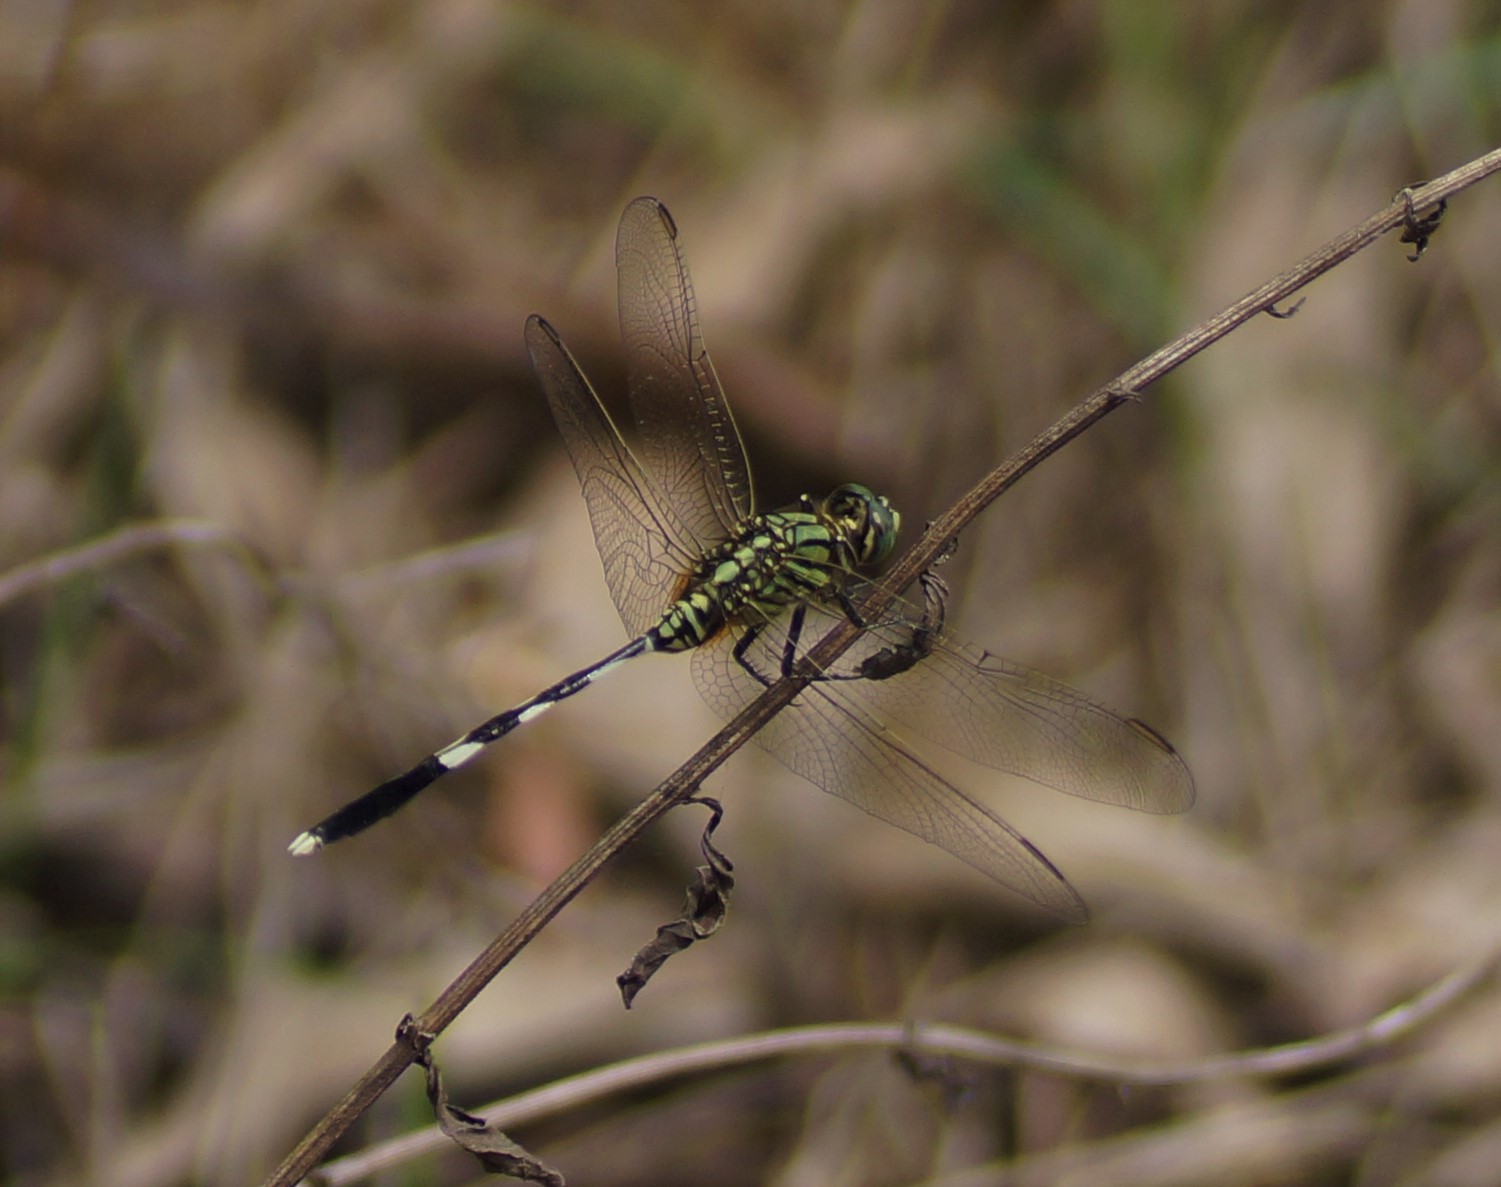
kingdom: Animalia
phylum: Arthropoda
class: Insecta
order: Odonata
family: Libellulidae
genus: Orthetrum
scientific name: Orthetrum sabina
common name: Slender skimmer
